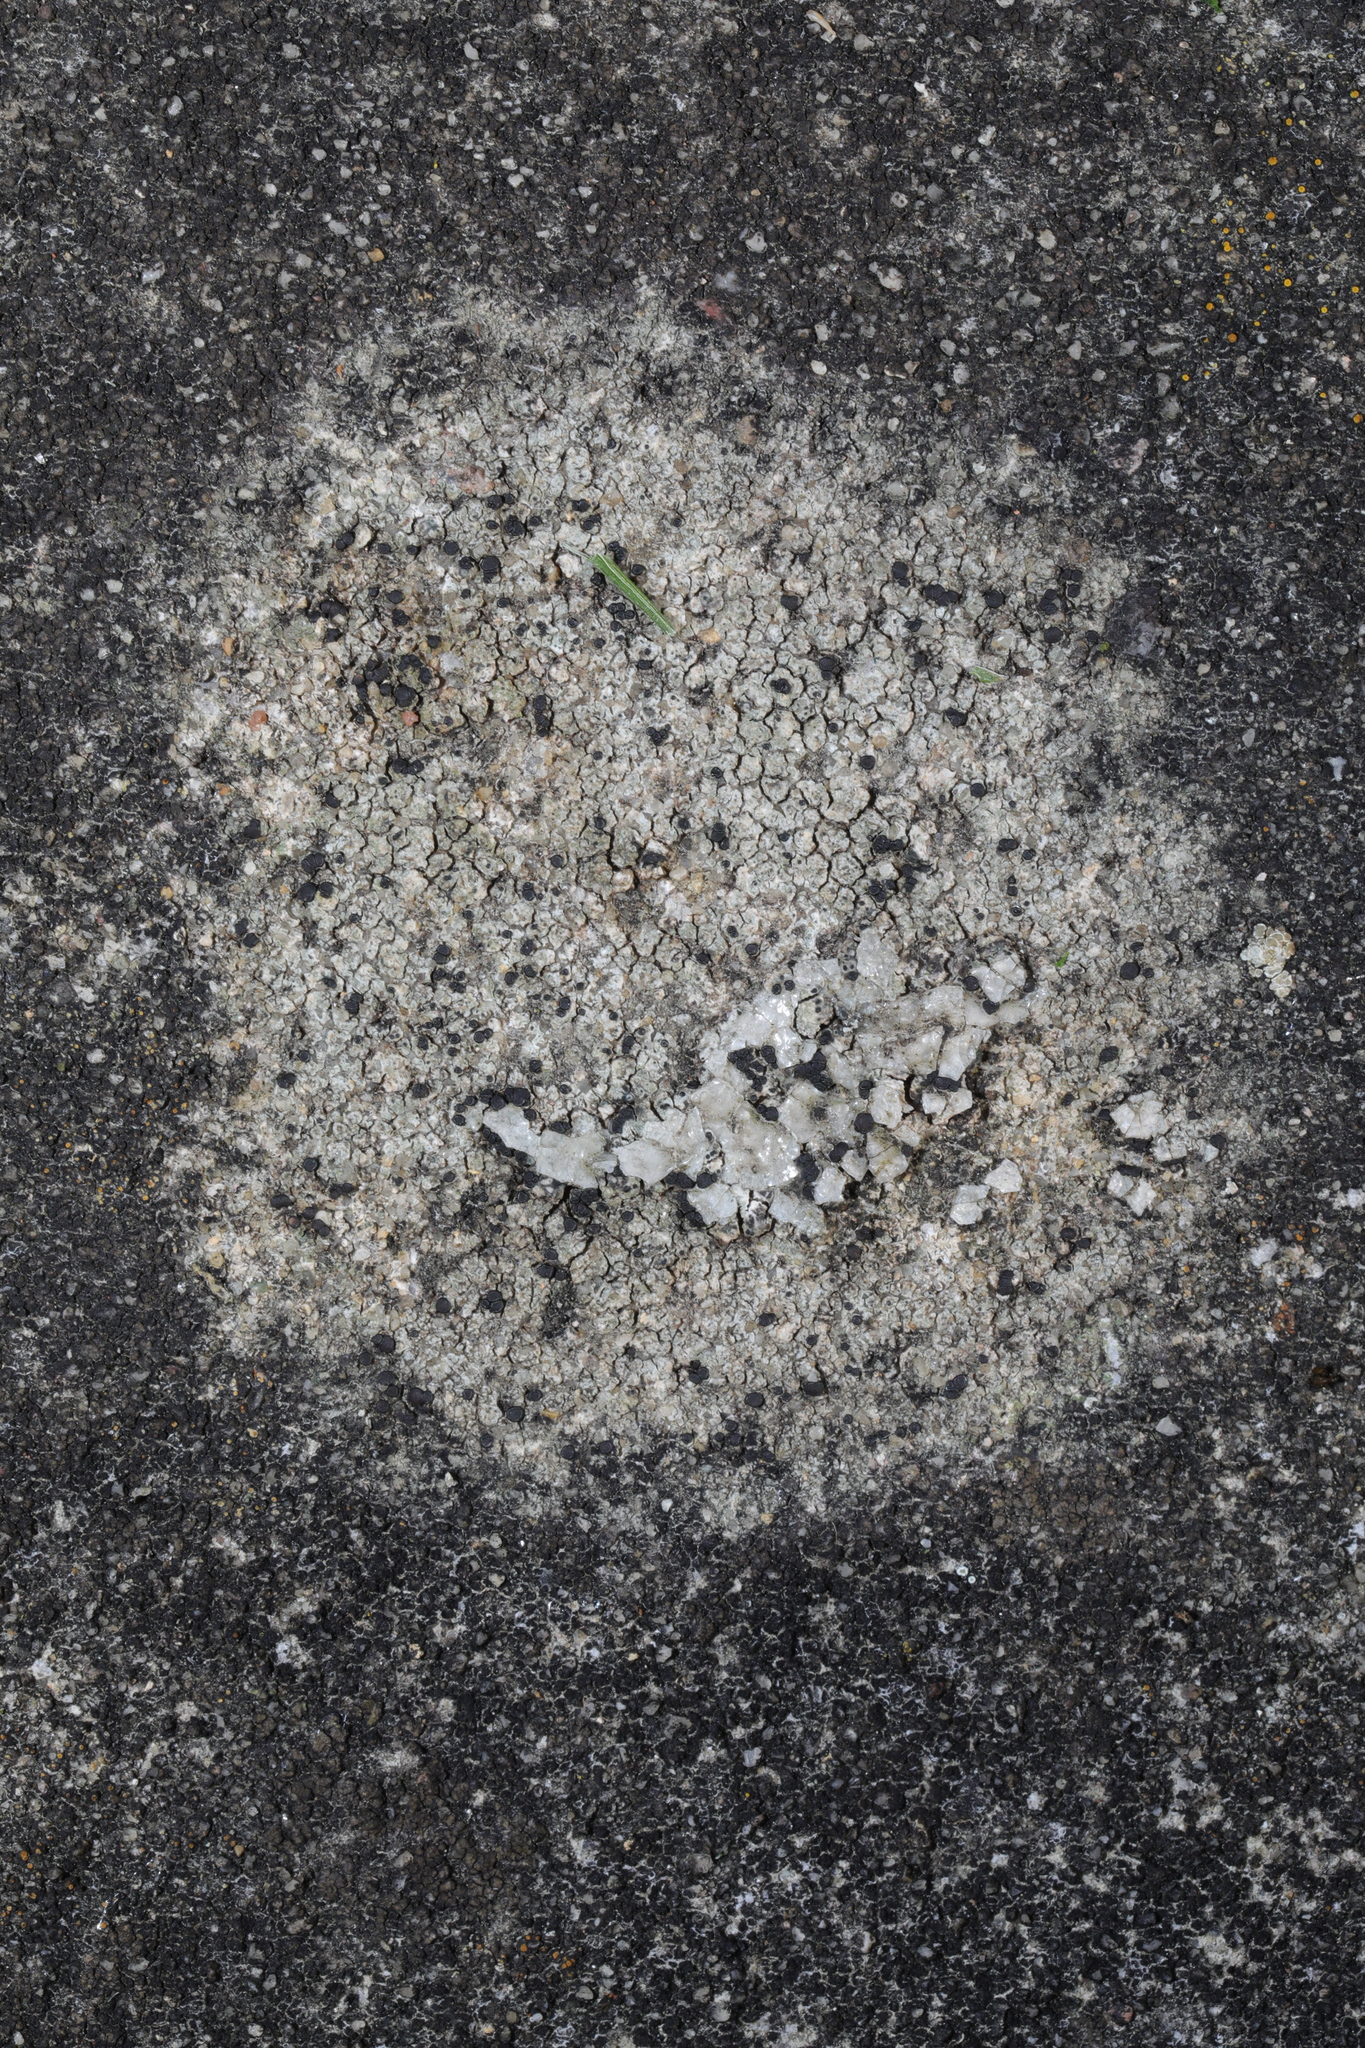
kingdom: Fungi
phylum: Ascomycota
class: Lecanoromycetes
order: Lecanorales
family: Lecanoraceae
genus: Lecidella
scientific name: Lecidella stigmatea
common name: Limestone disc lichen
